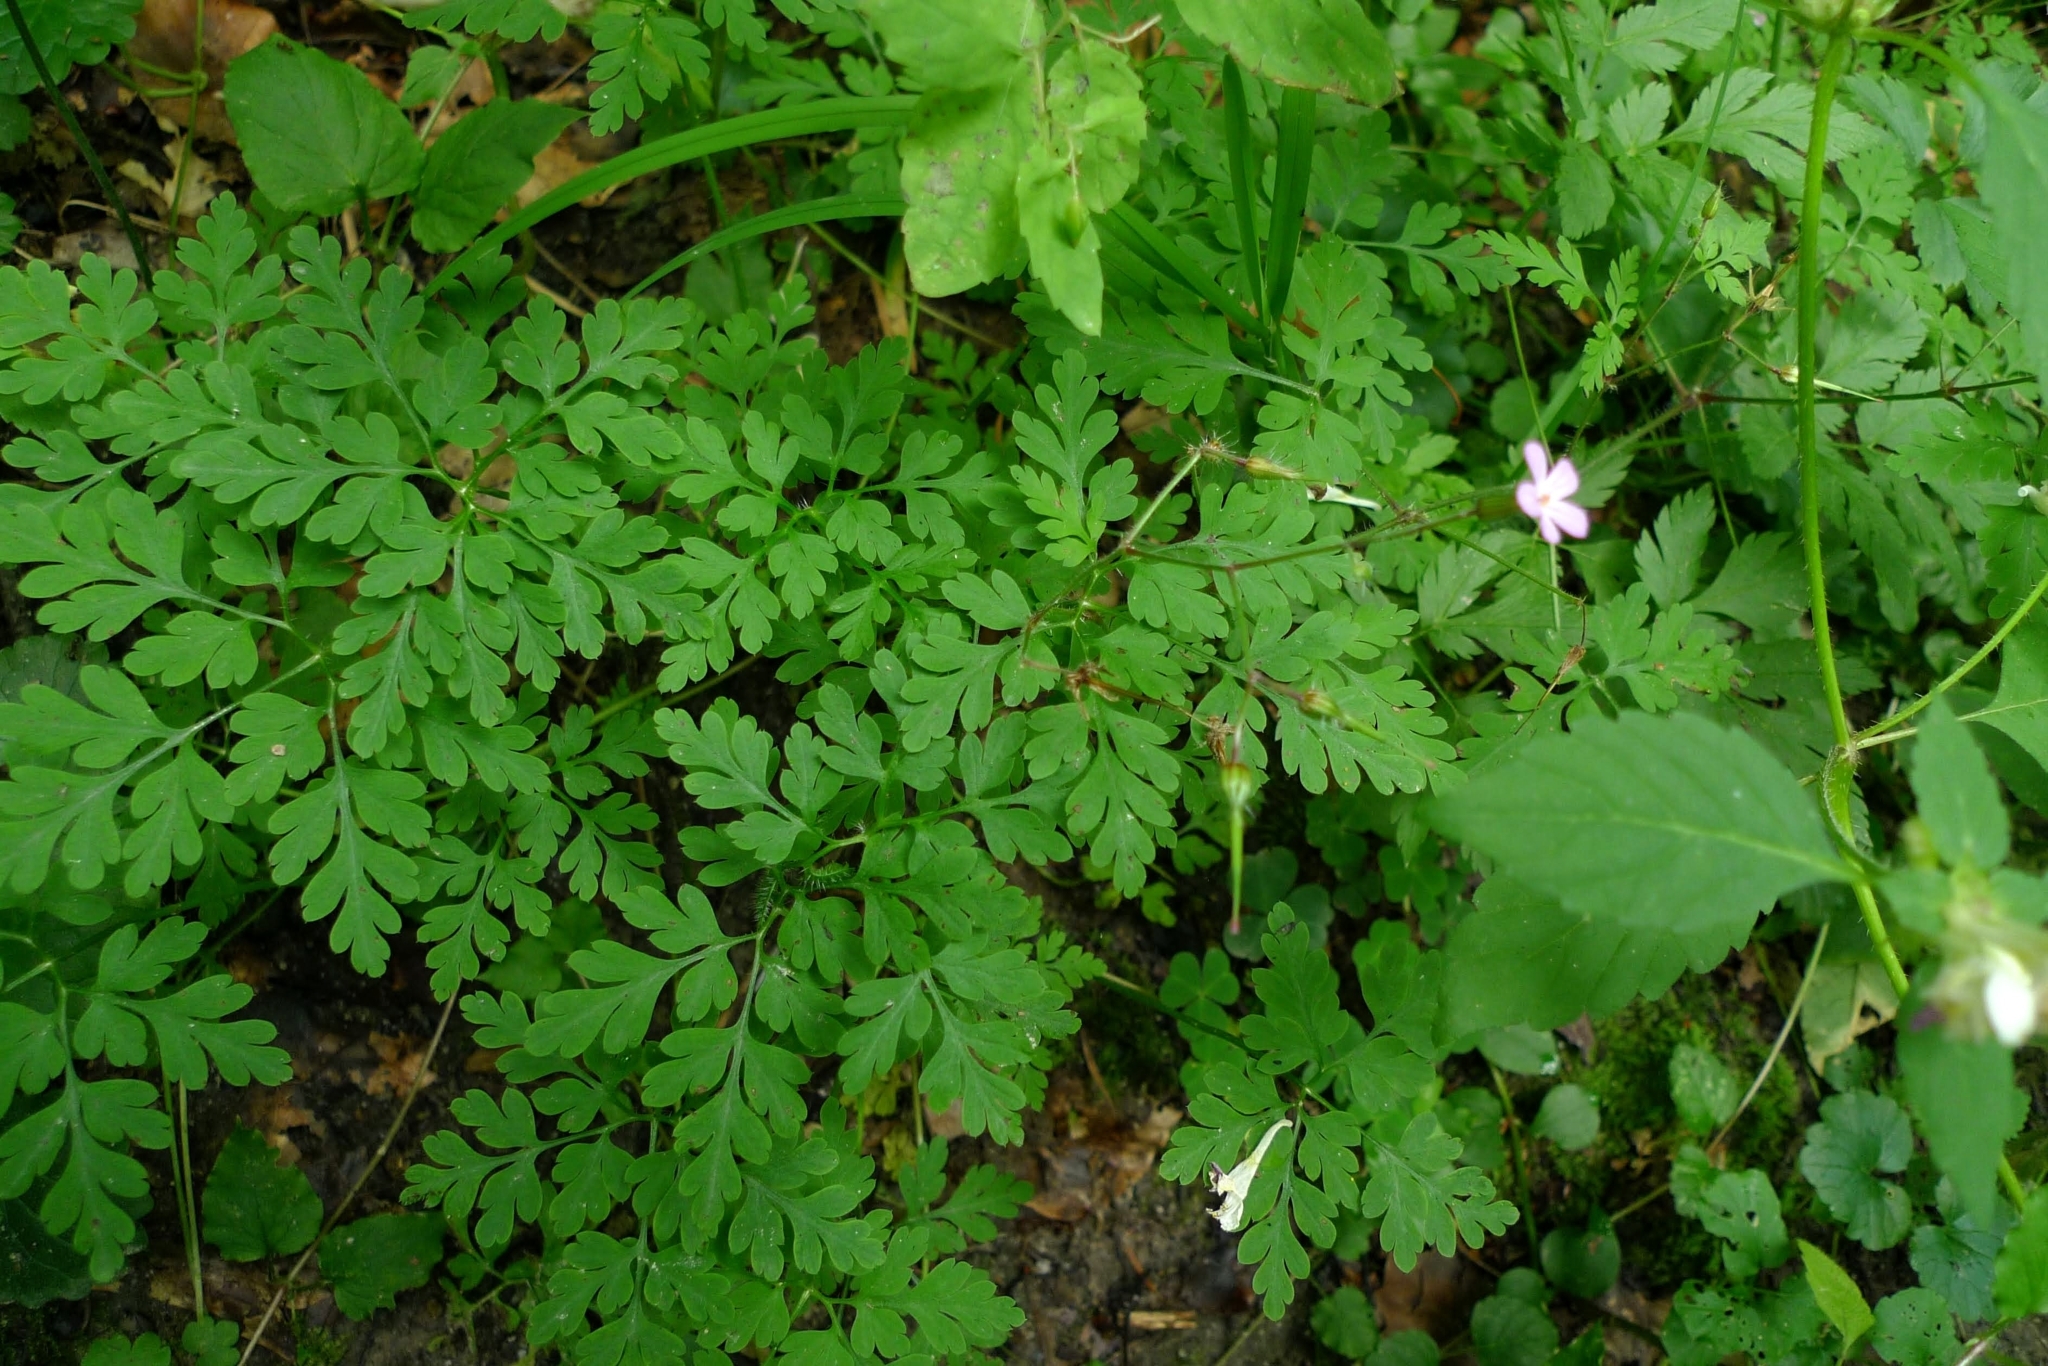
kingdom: Plantae
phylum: Tracheophyta
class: Magnoliopsida
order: Geraniales
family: Geraniaceae
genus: Geranium
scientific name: Geranium robertianum
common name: Herb-robert
